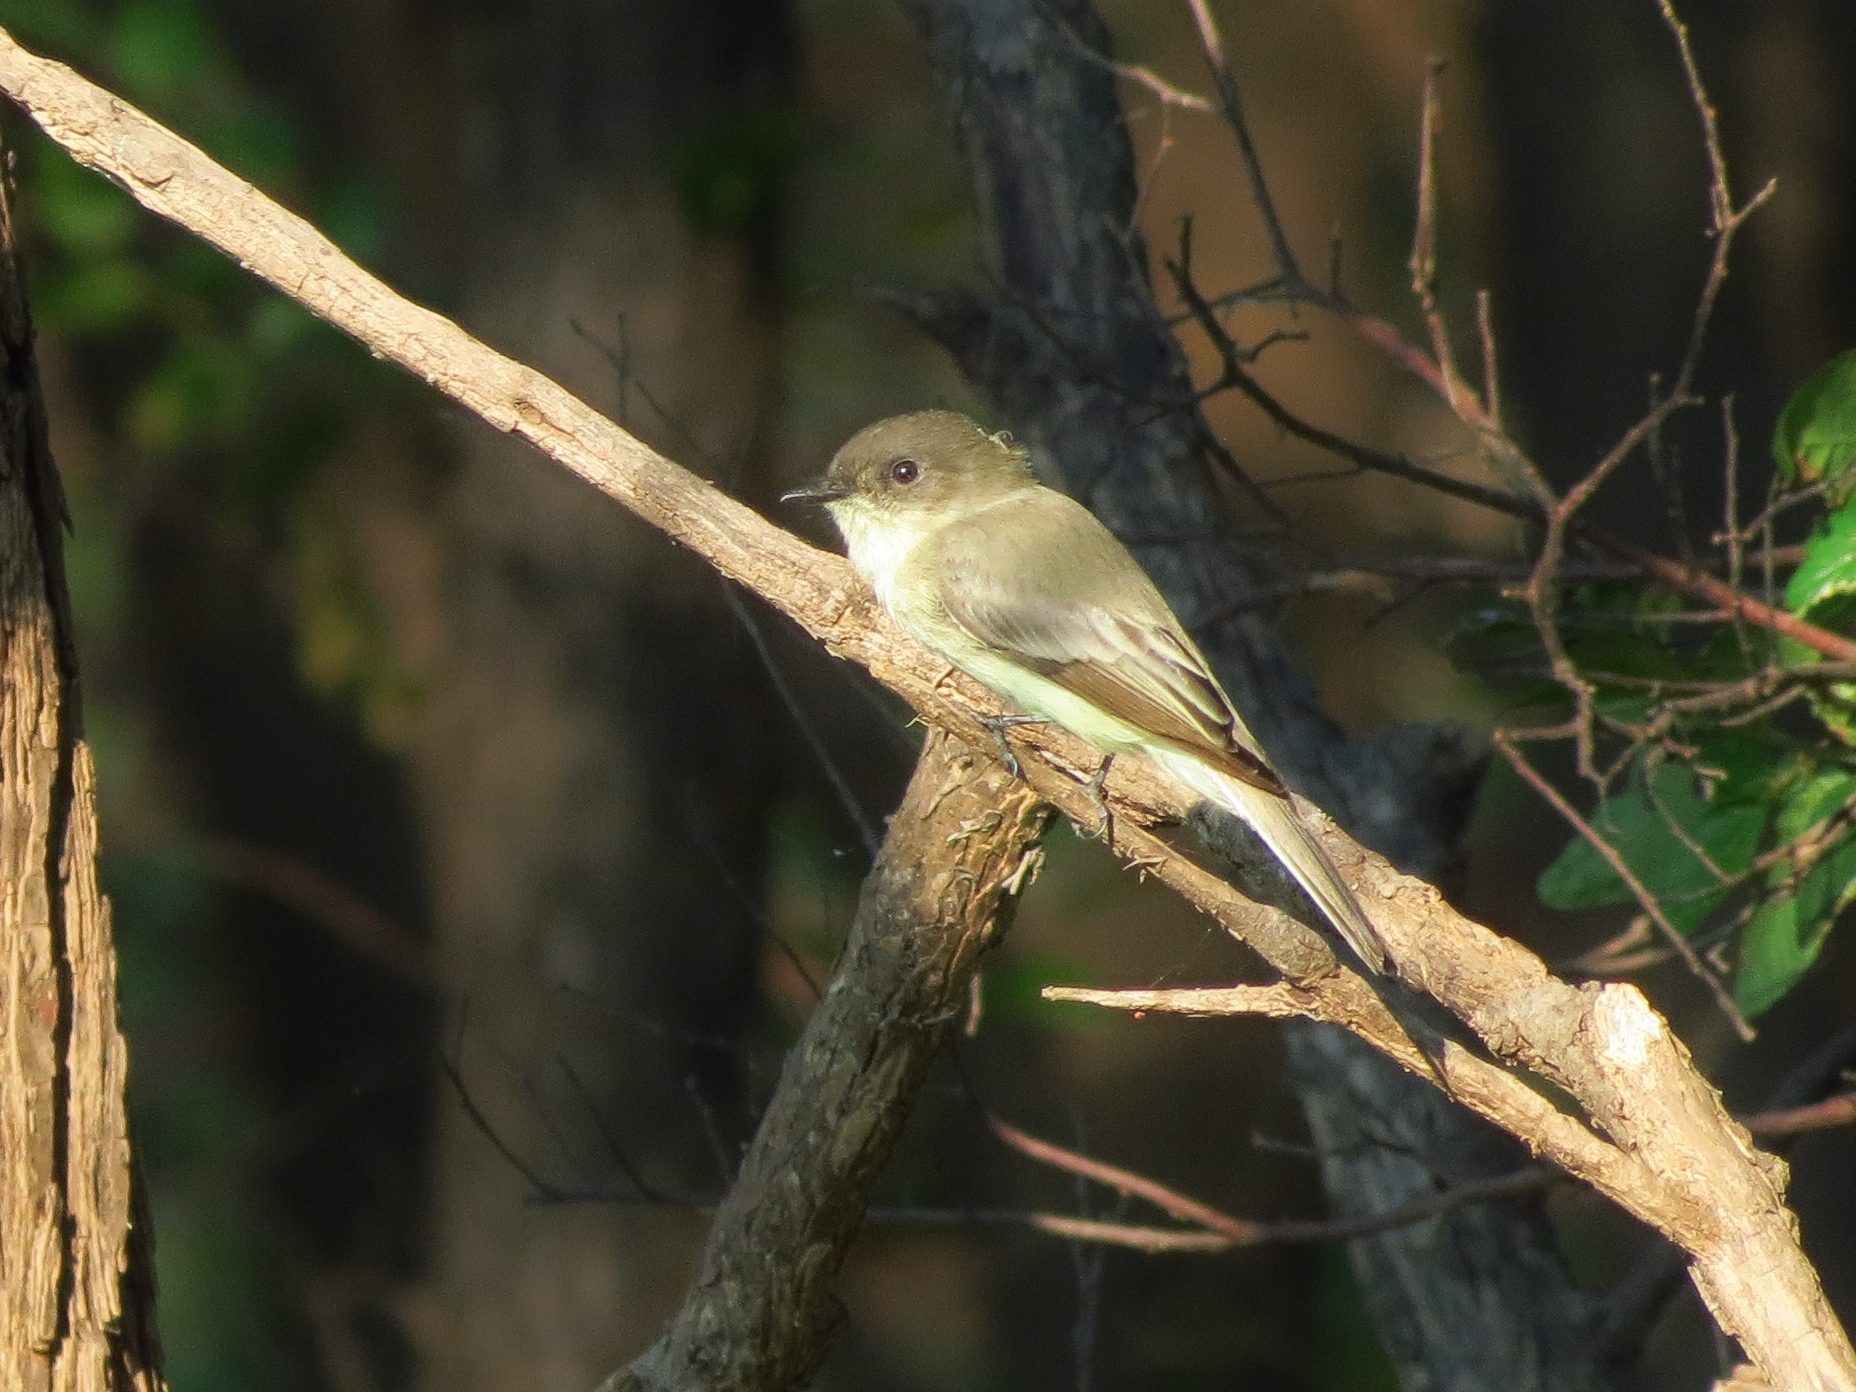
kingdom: Animalia
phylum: Chordata
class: Aves
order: Passeriformes
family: Tyrannidae
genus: Sayornis
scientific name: Sayornis phoebe
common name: Eastern phoebe
